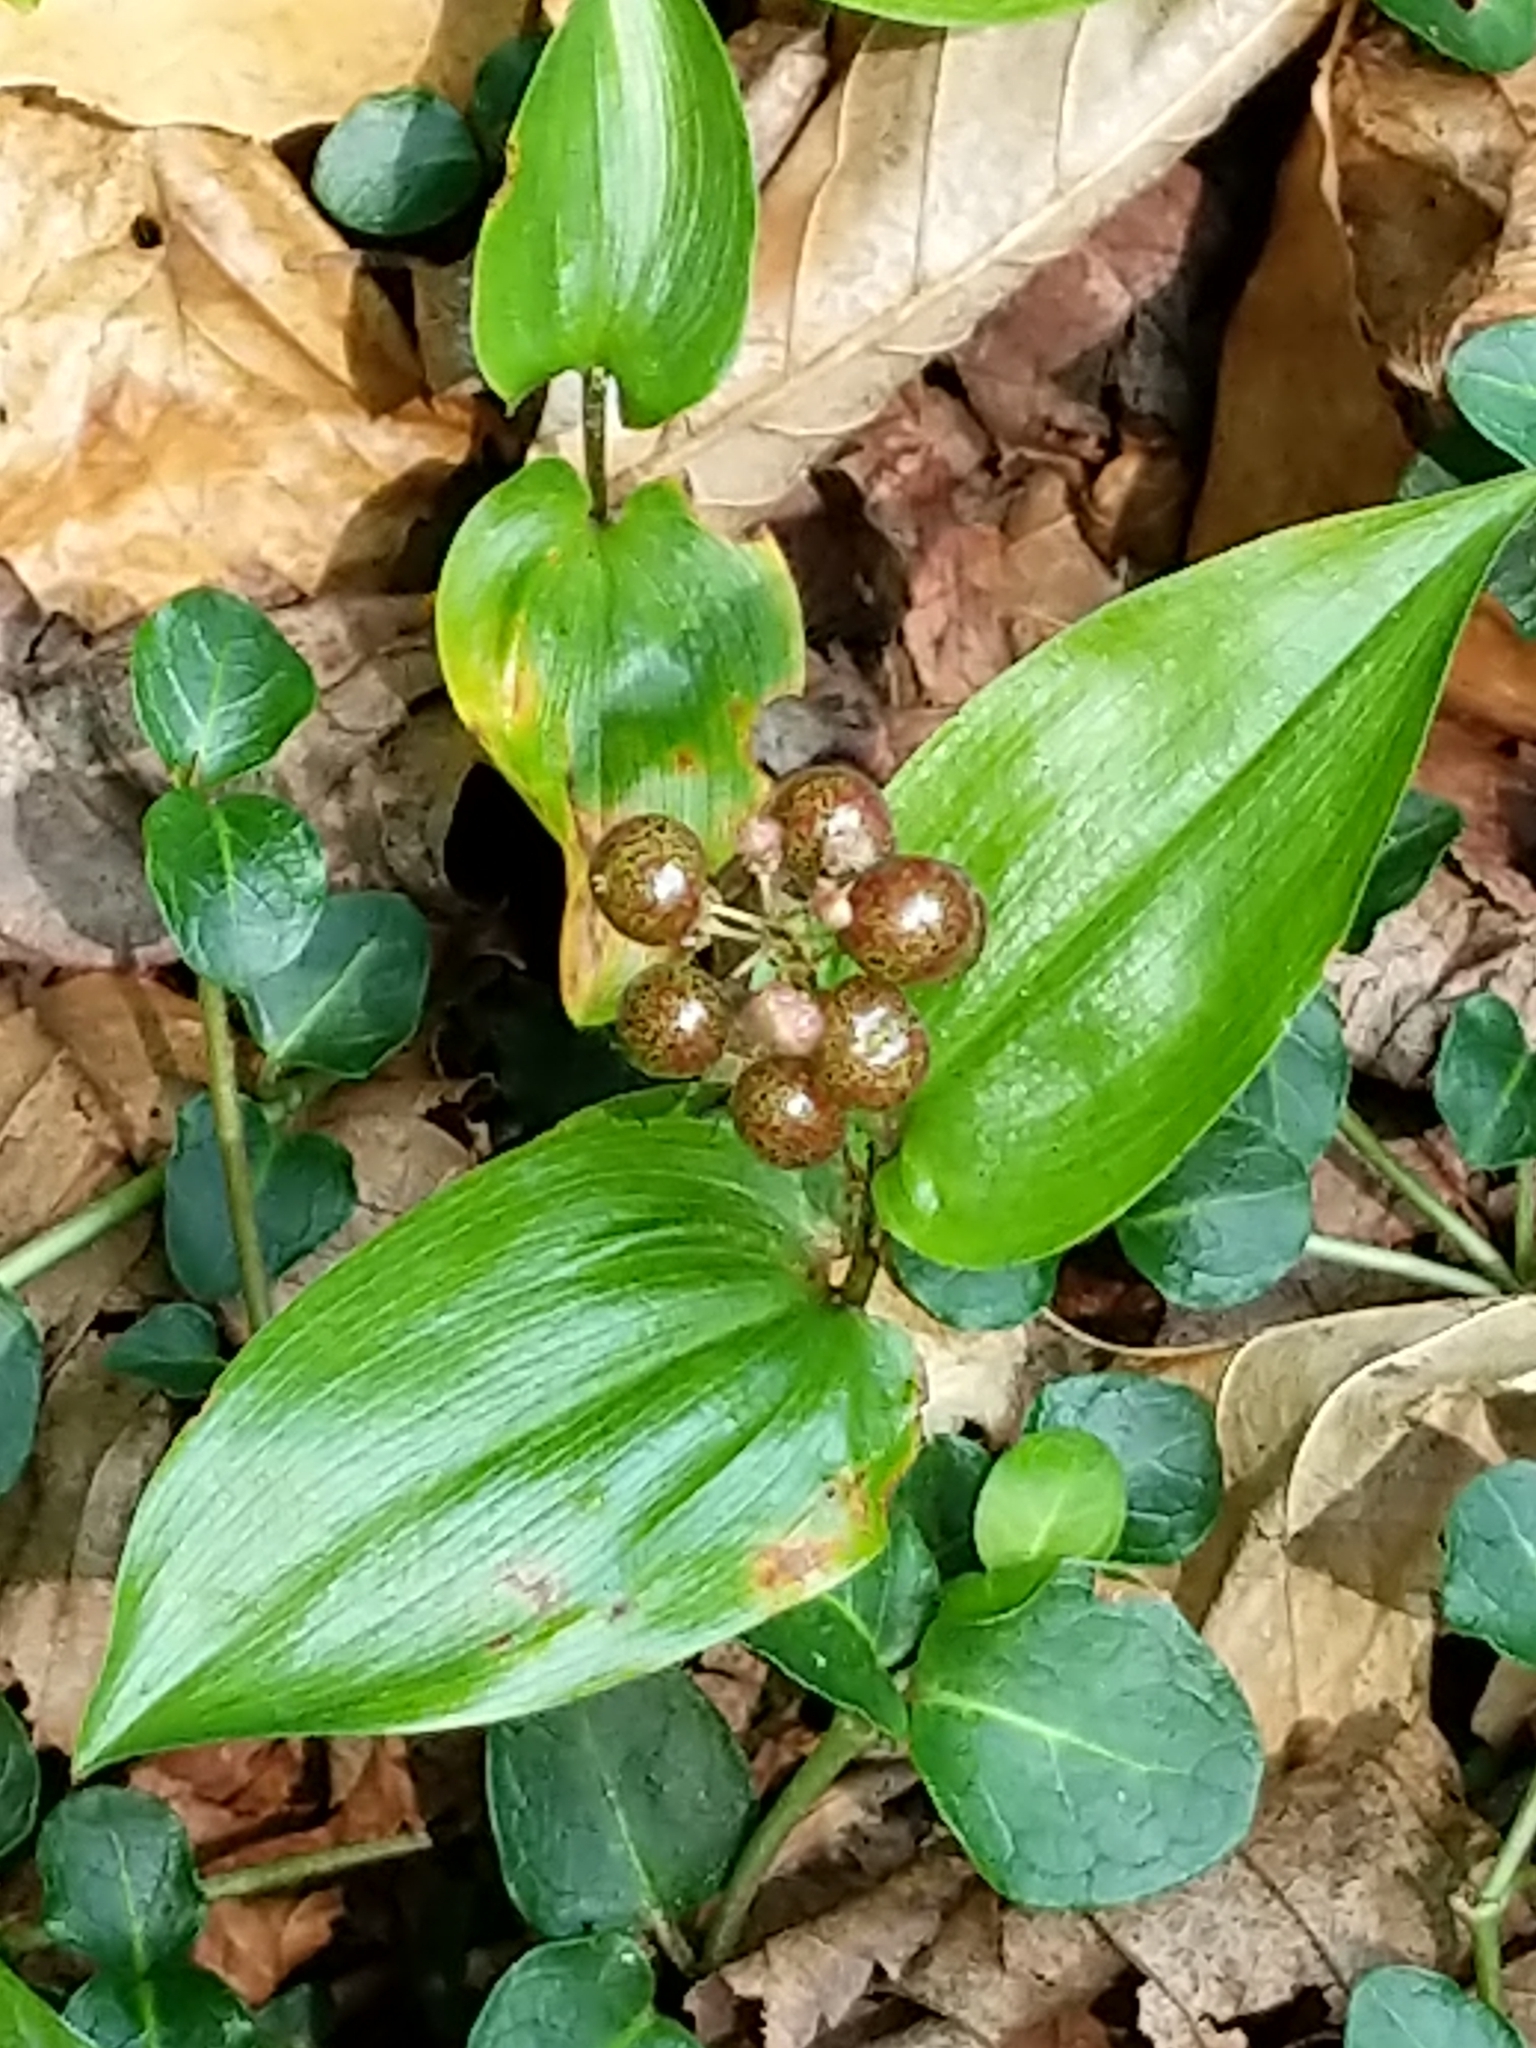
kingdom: Plantae
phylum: Tracheophyta
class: Liliopsida
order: Asparagales
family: Asparagaceae
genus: Maianthemum
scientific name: Maianthemum canadense
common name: False lily-of-the-valley
